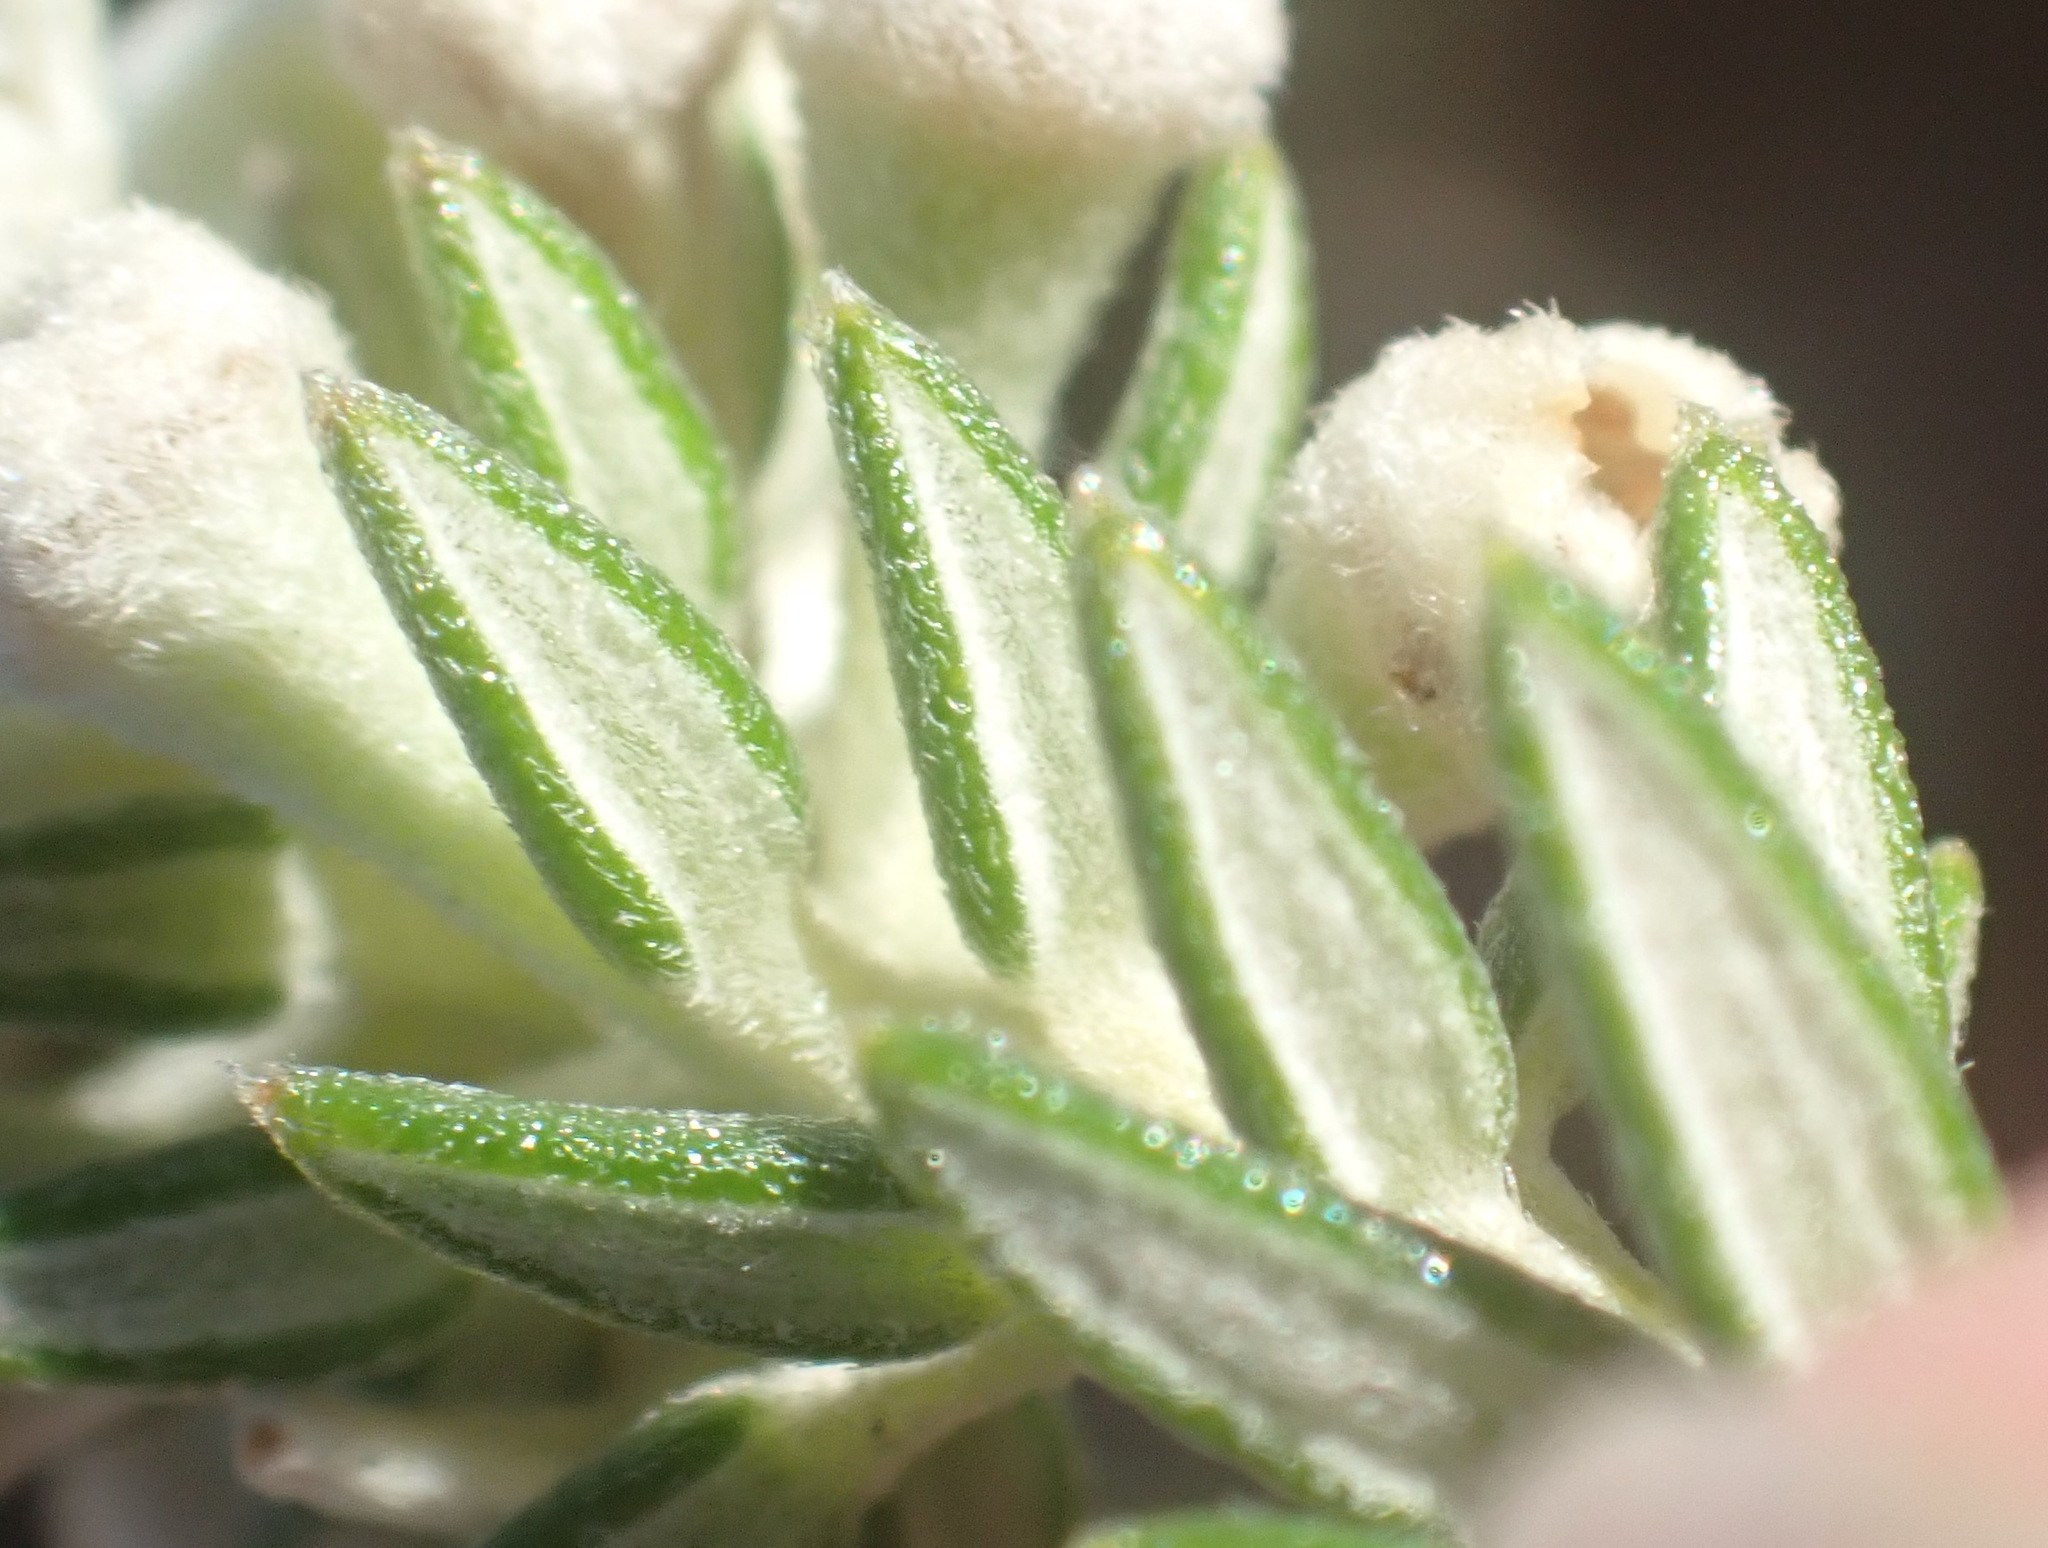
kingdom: Plantae
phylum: Tracheophyta
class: Magnoliopsida
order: Rosales
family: Rhamnaceae
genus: Phylica
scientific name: Phylica axillaris
